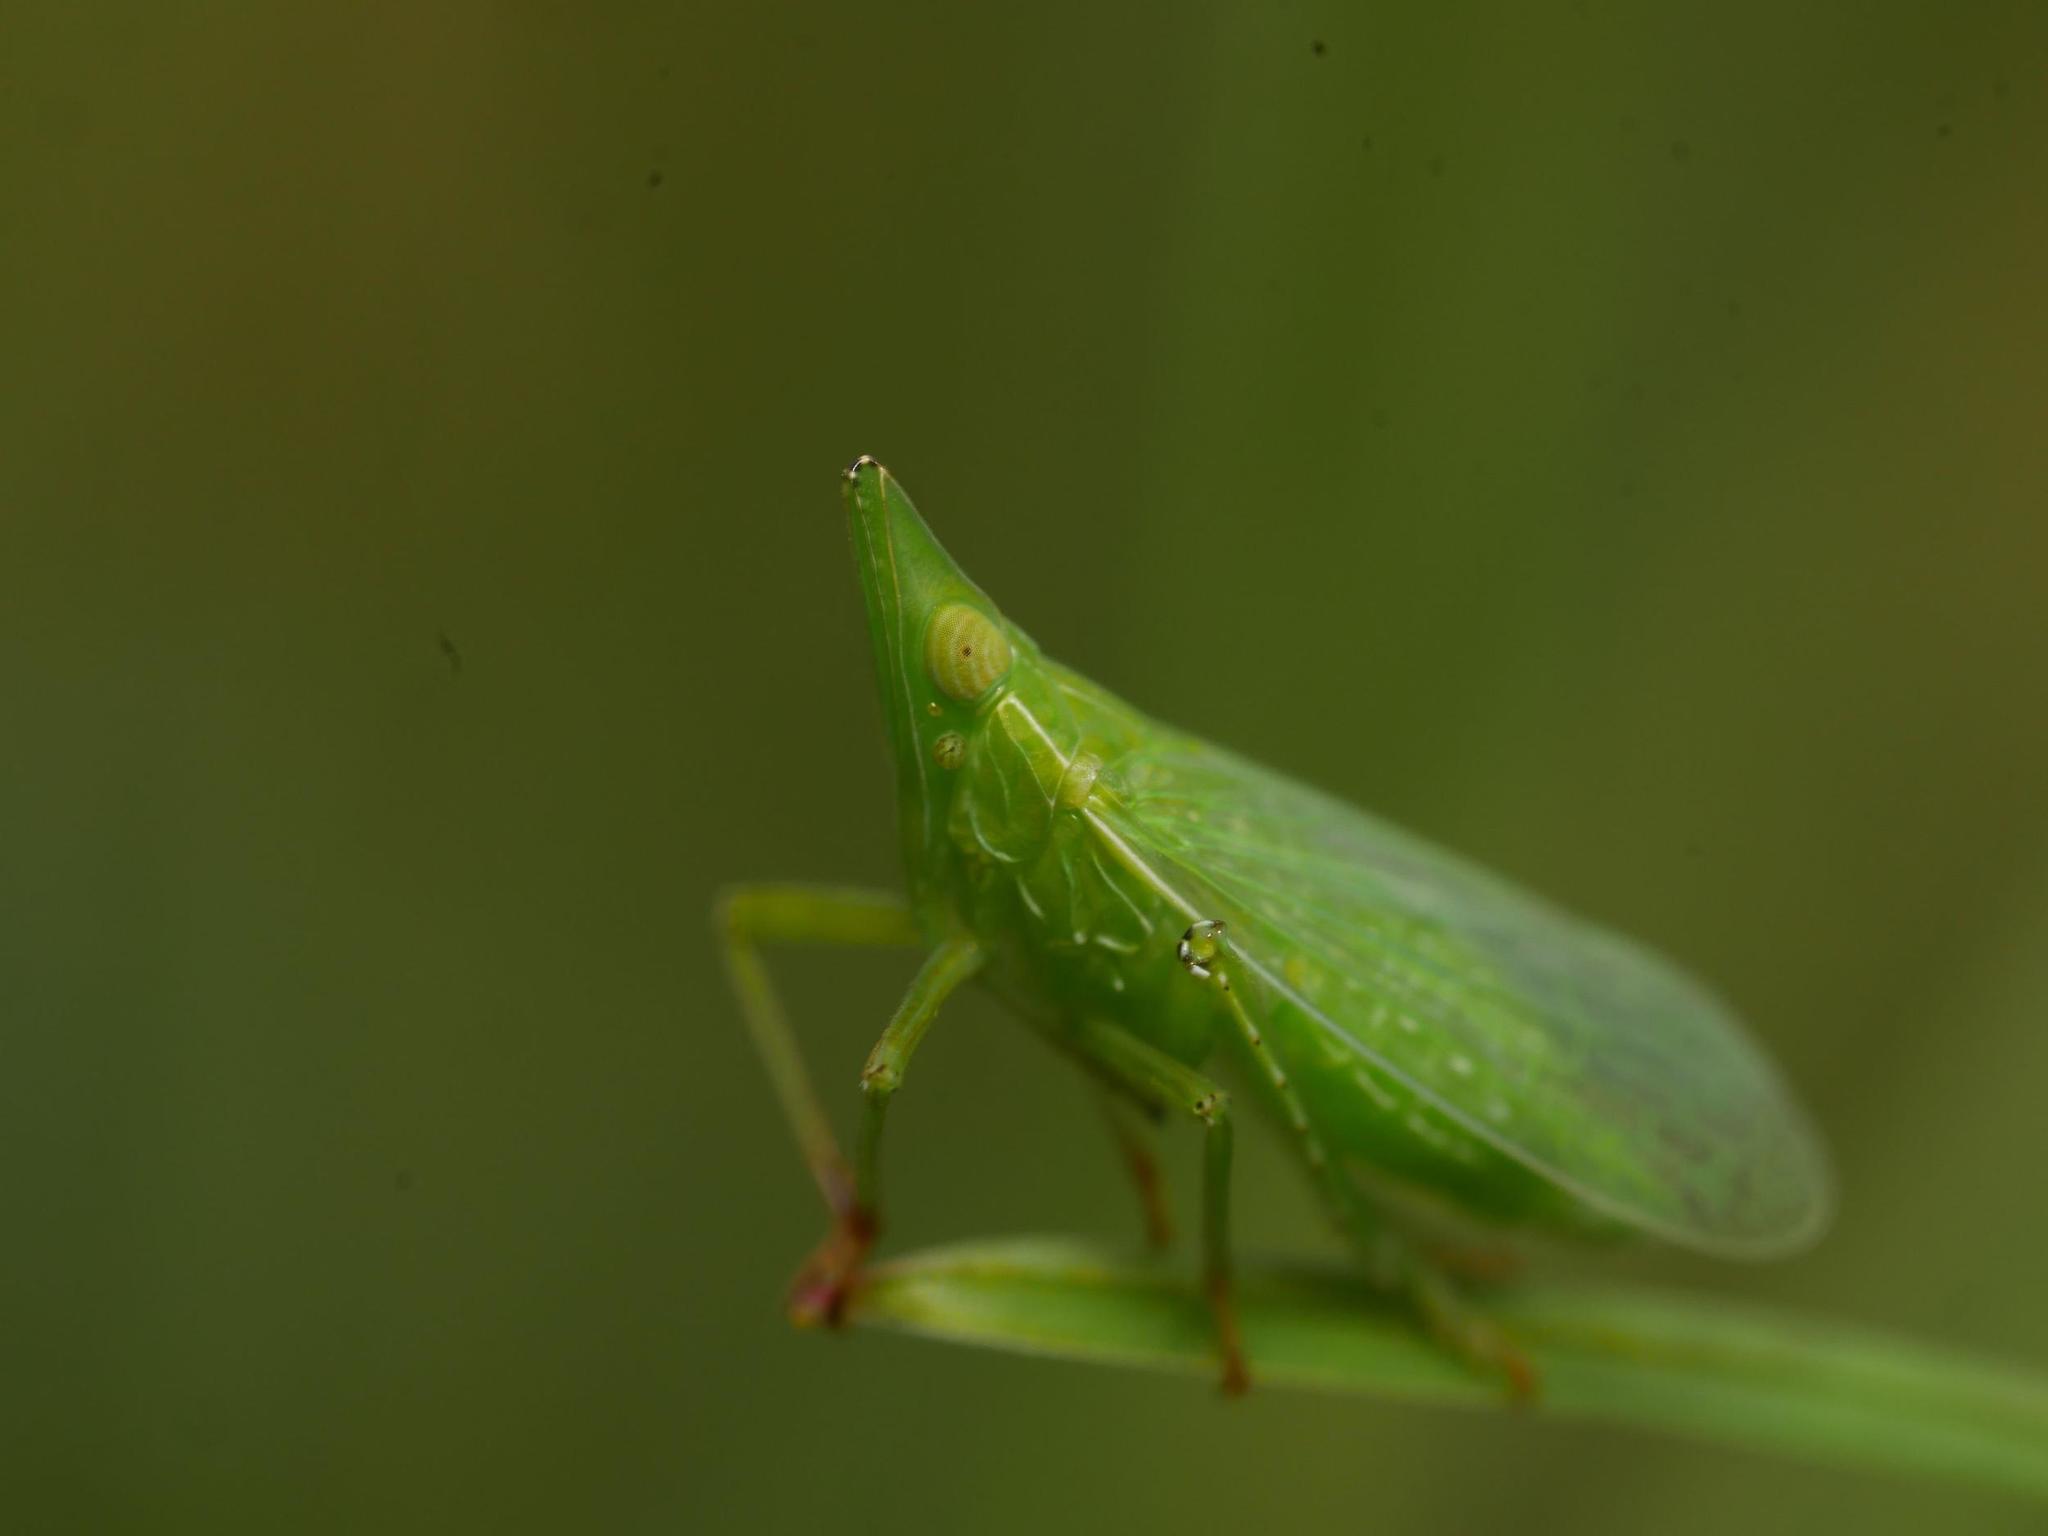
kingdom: Animalia
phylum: Arthropoda
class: Insecta
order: Hemiptera
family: Dictyopharidae
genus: Dictyophara
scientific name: Dictyophara europaea
